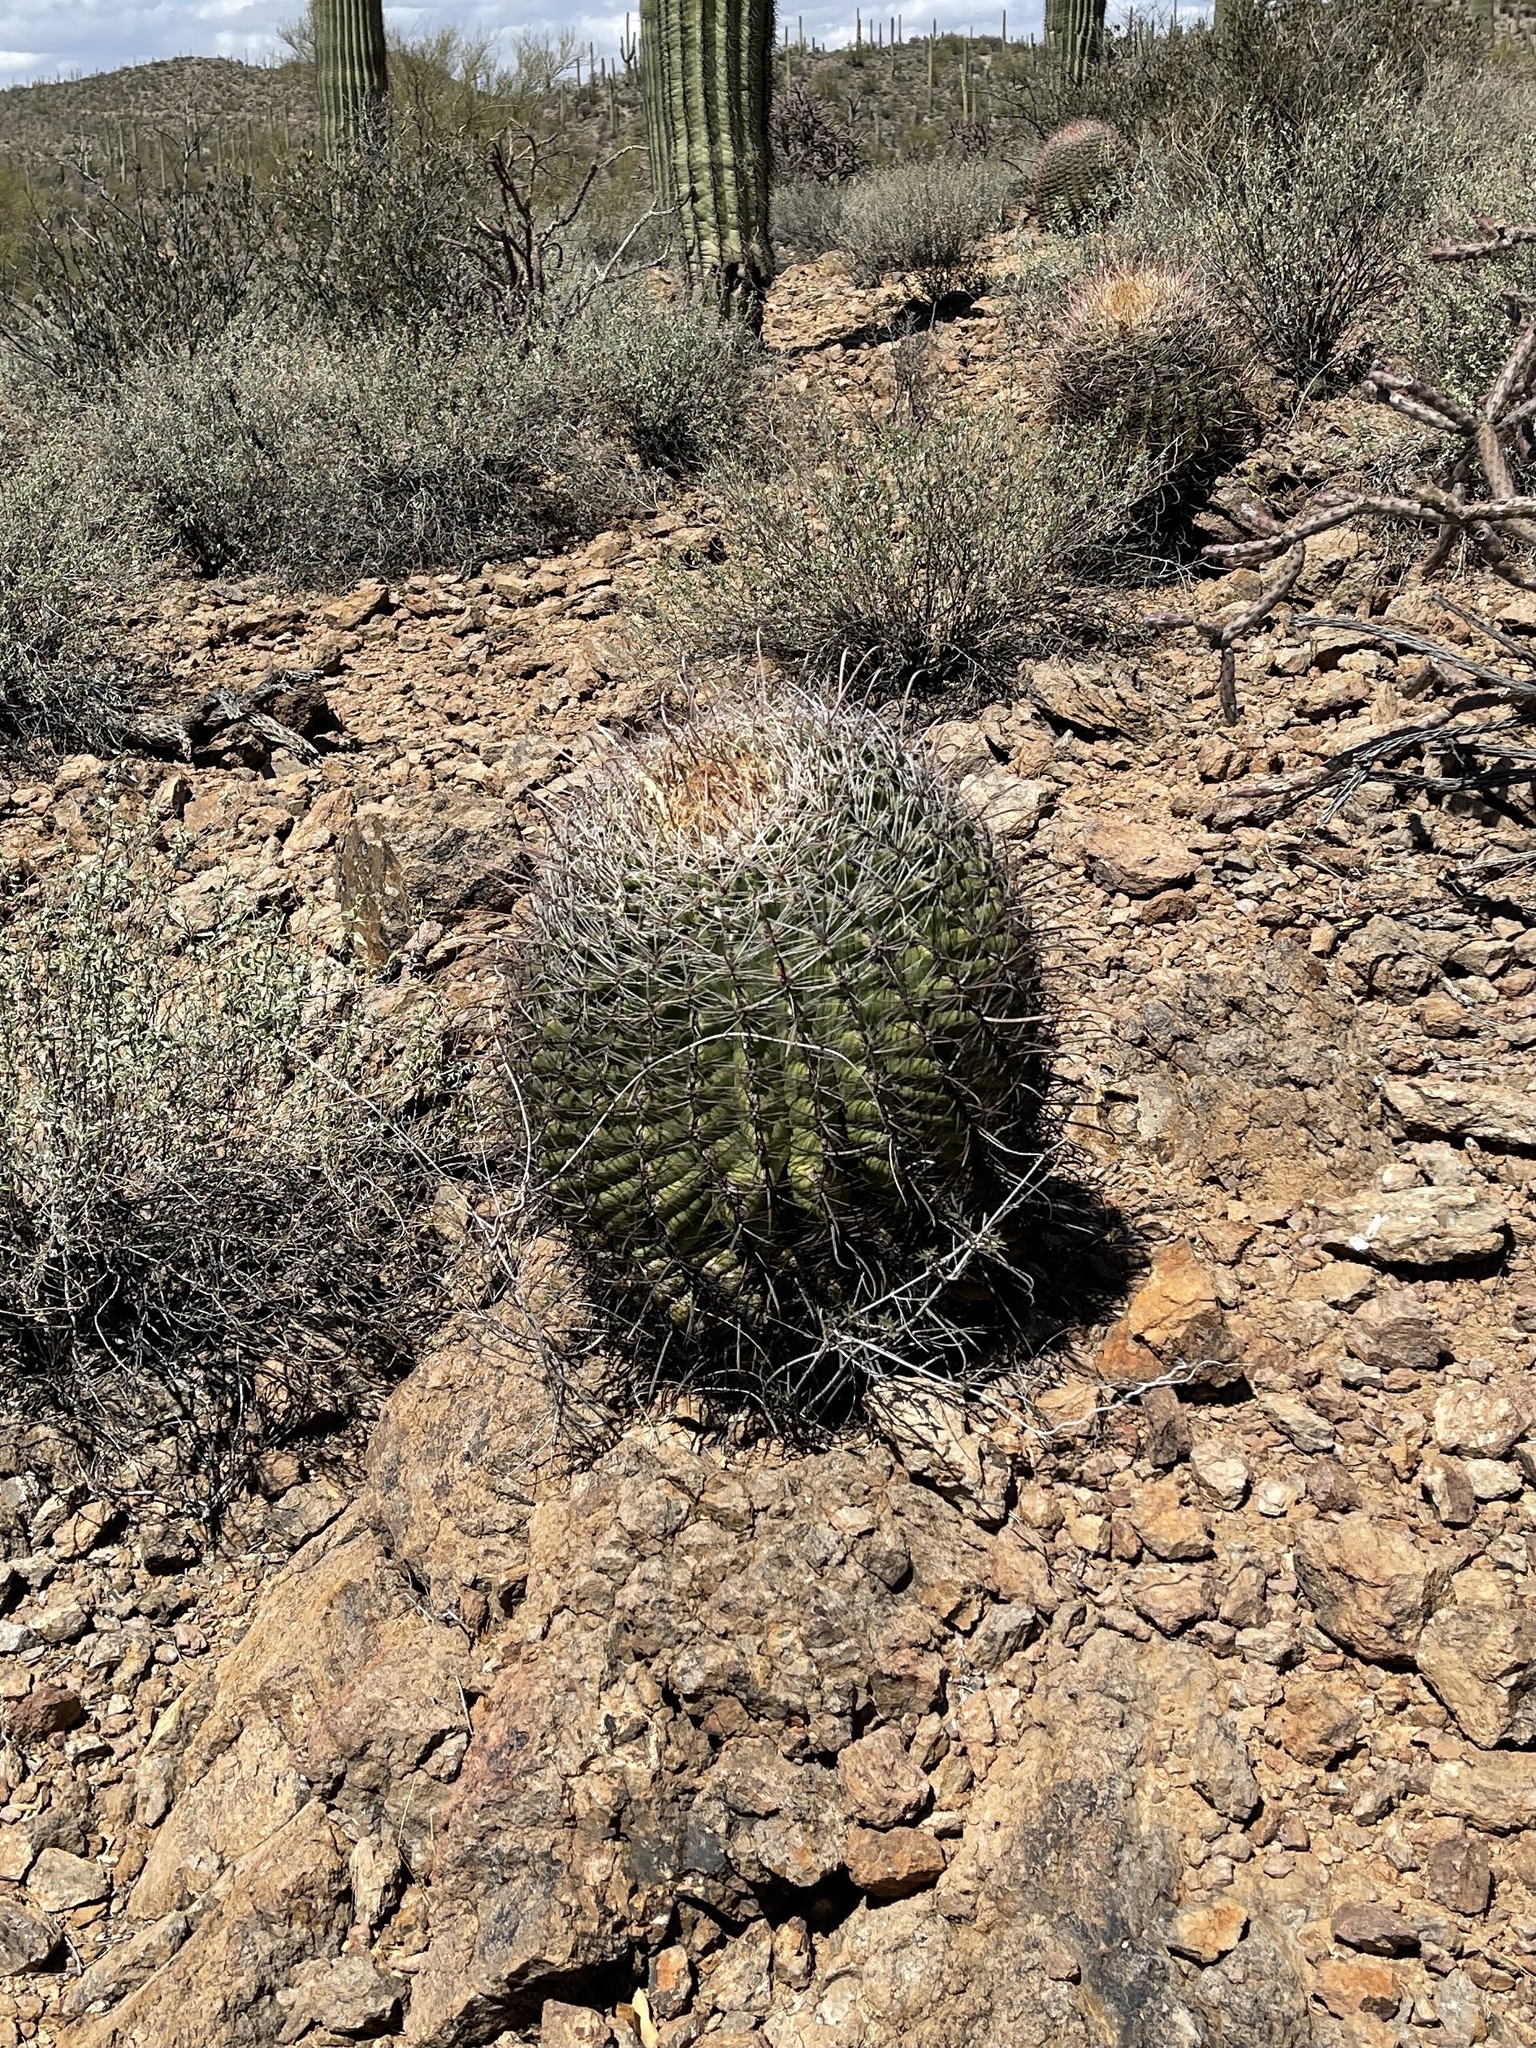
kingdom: Plantae
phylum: Tracheophyta
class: Magnoliopsida
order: Caryophyllales
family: Cactaceae
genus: Ferocactus
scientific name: Ferocactus wislizeni
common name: Candy barrel cactus
